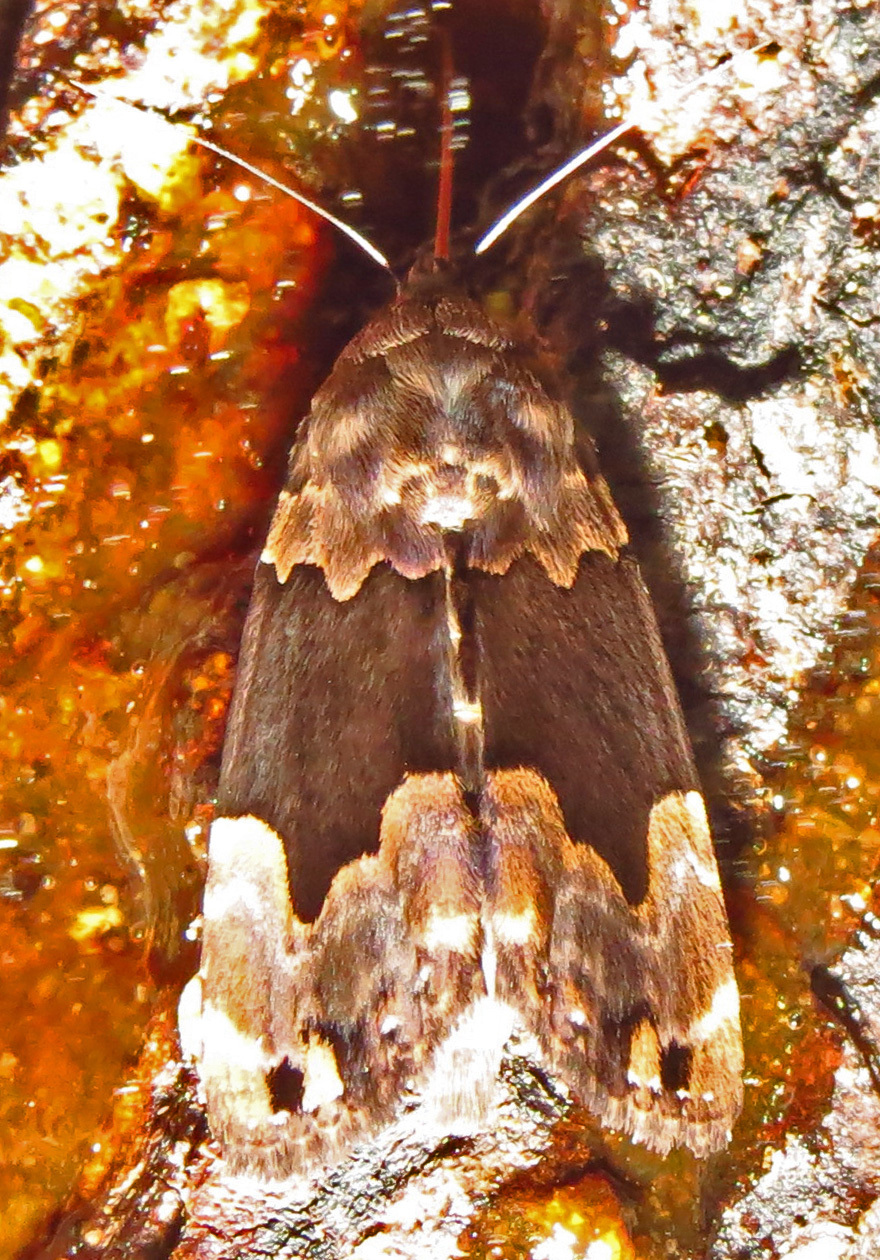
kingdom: Animalia
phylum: Arthropoda
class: Insecta
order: Lepidoptera
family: Erebidae
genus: Dinumma
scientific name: Dinumma deponens
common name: Purplish moth
